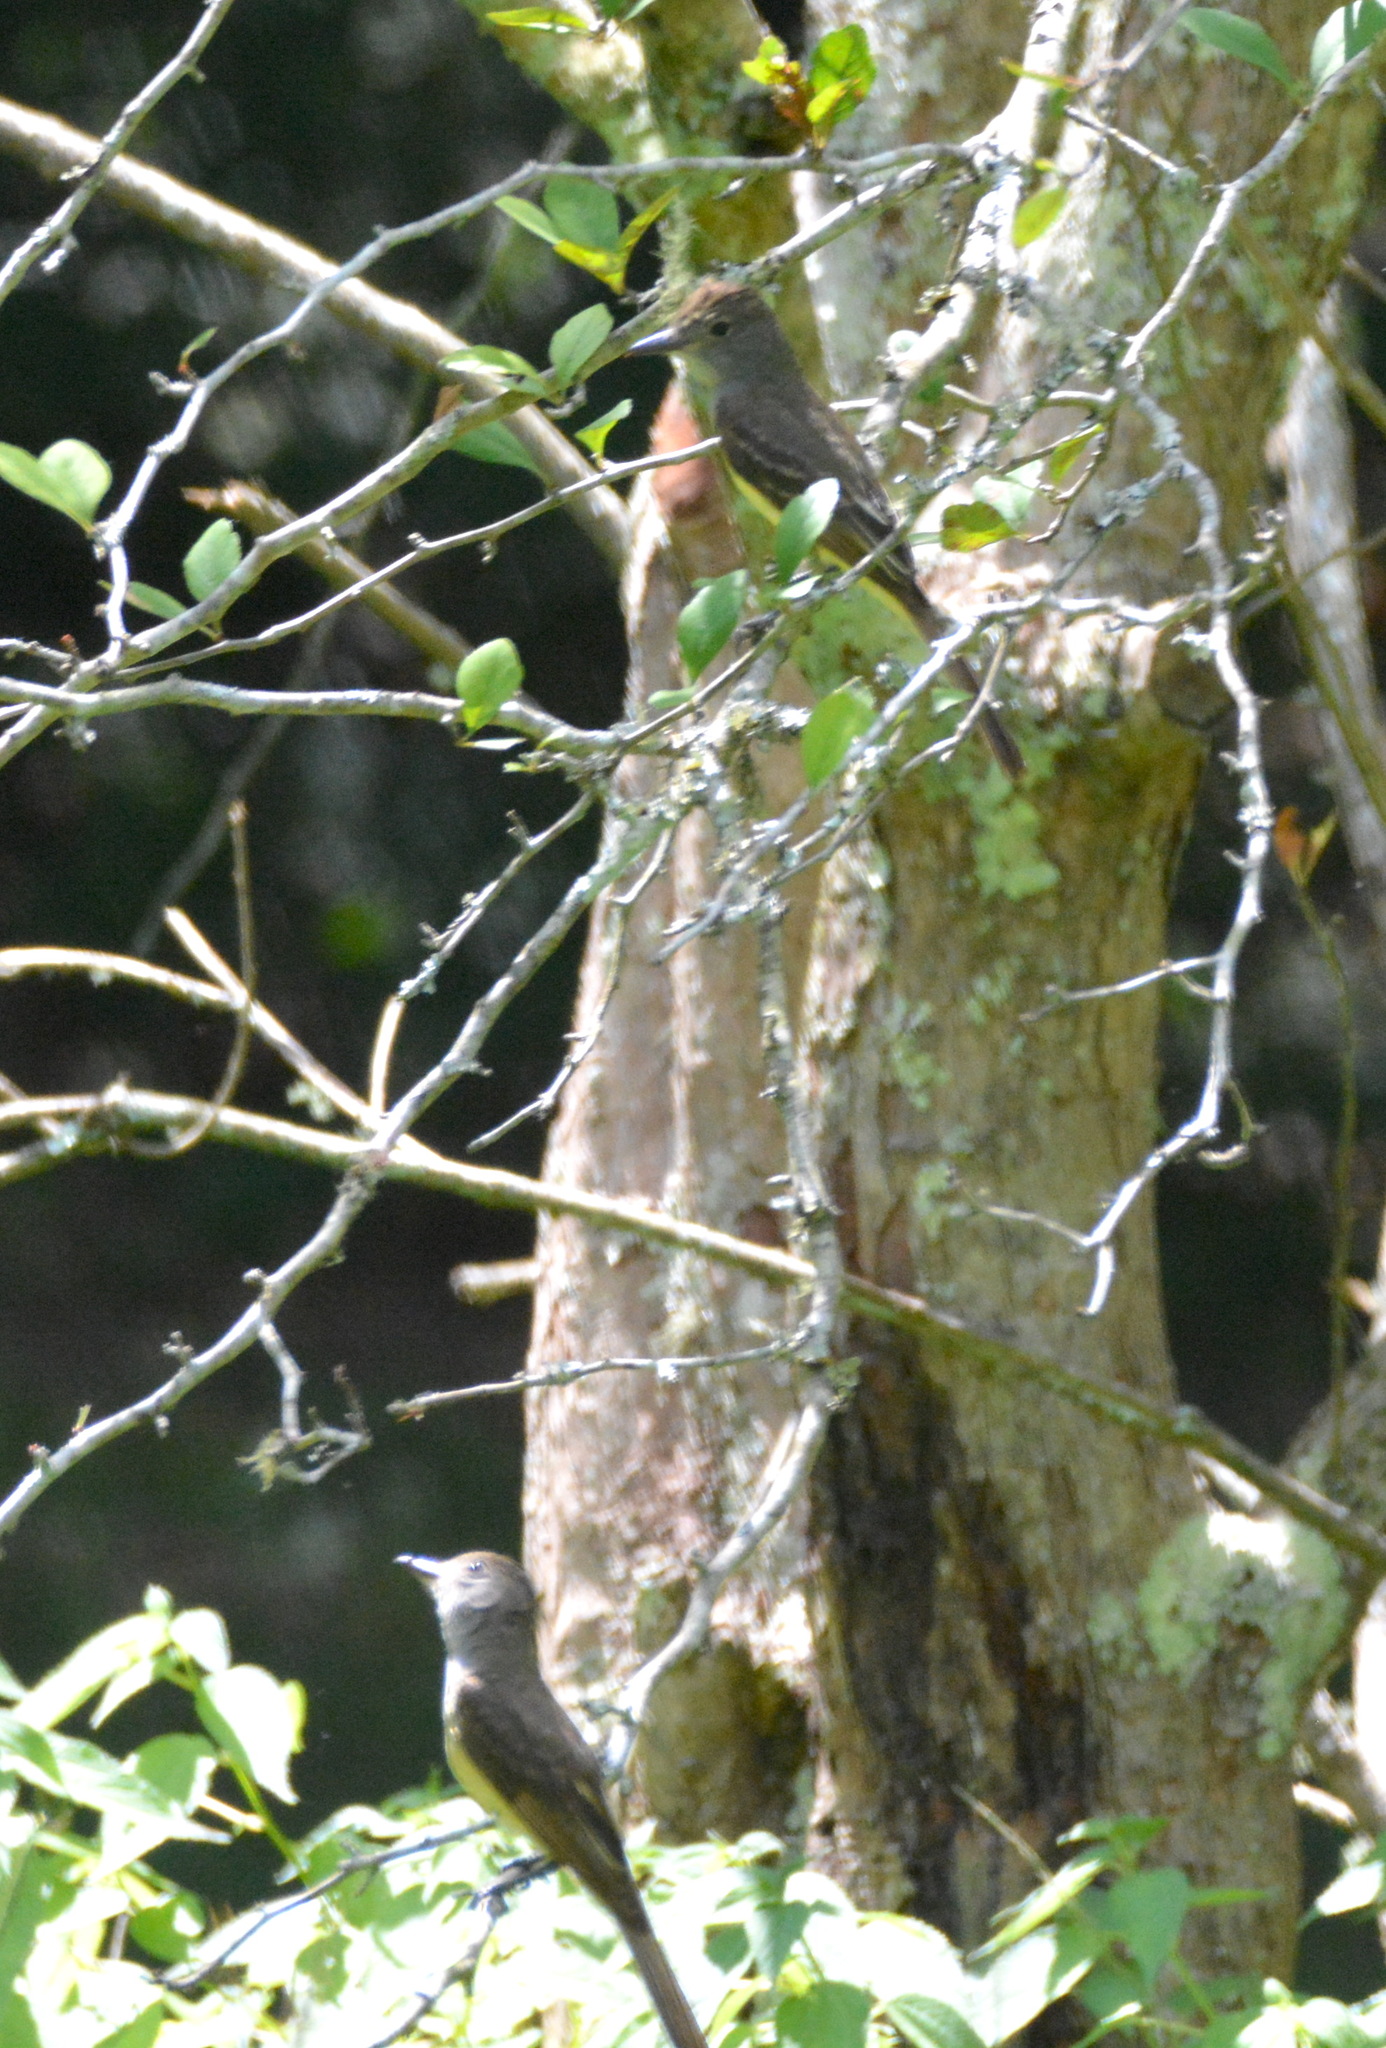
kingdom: Animalia
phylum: Chordata
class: Aves
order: Passeriformes
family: Tyrannidae
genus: Myiarchus
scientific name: Myiarchus crinitus
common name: Great crested flycatcher
